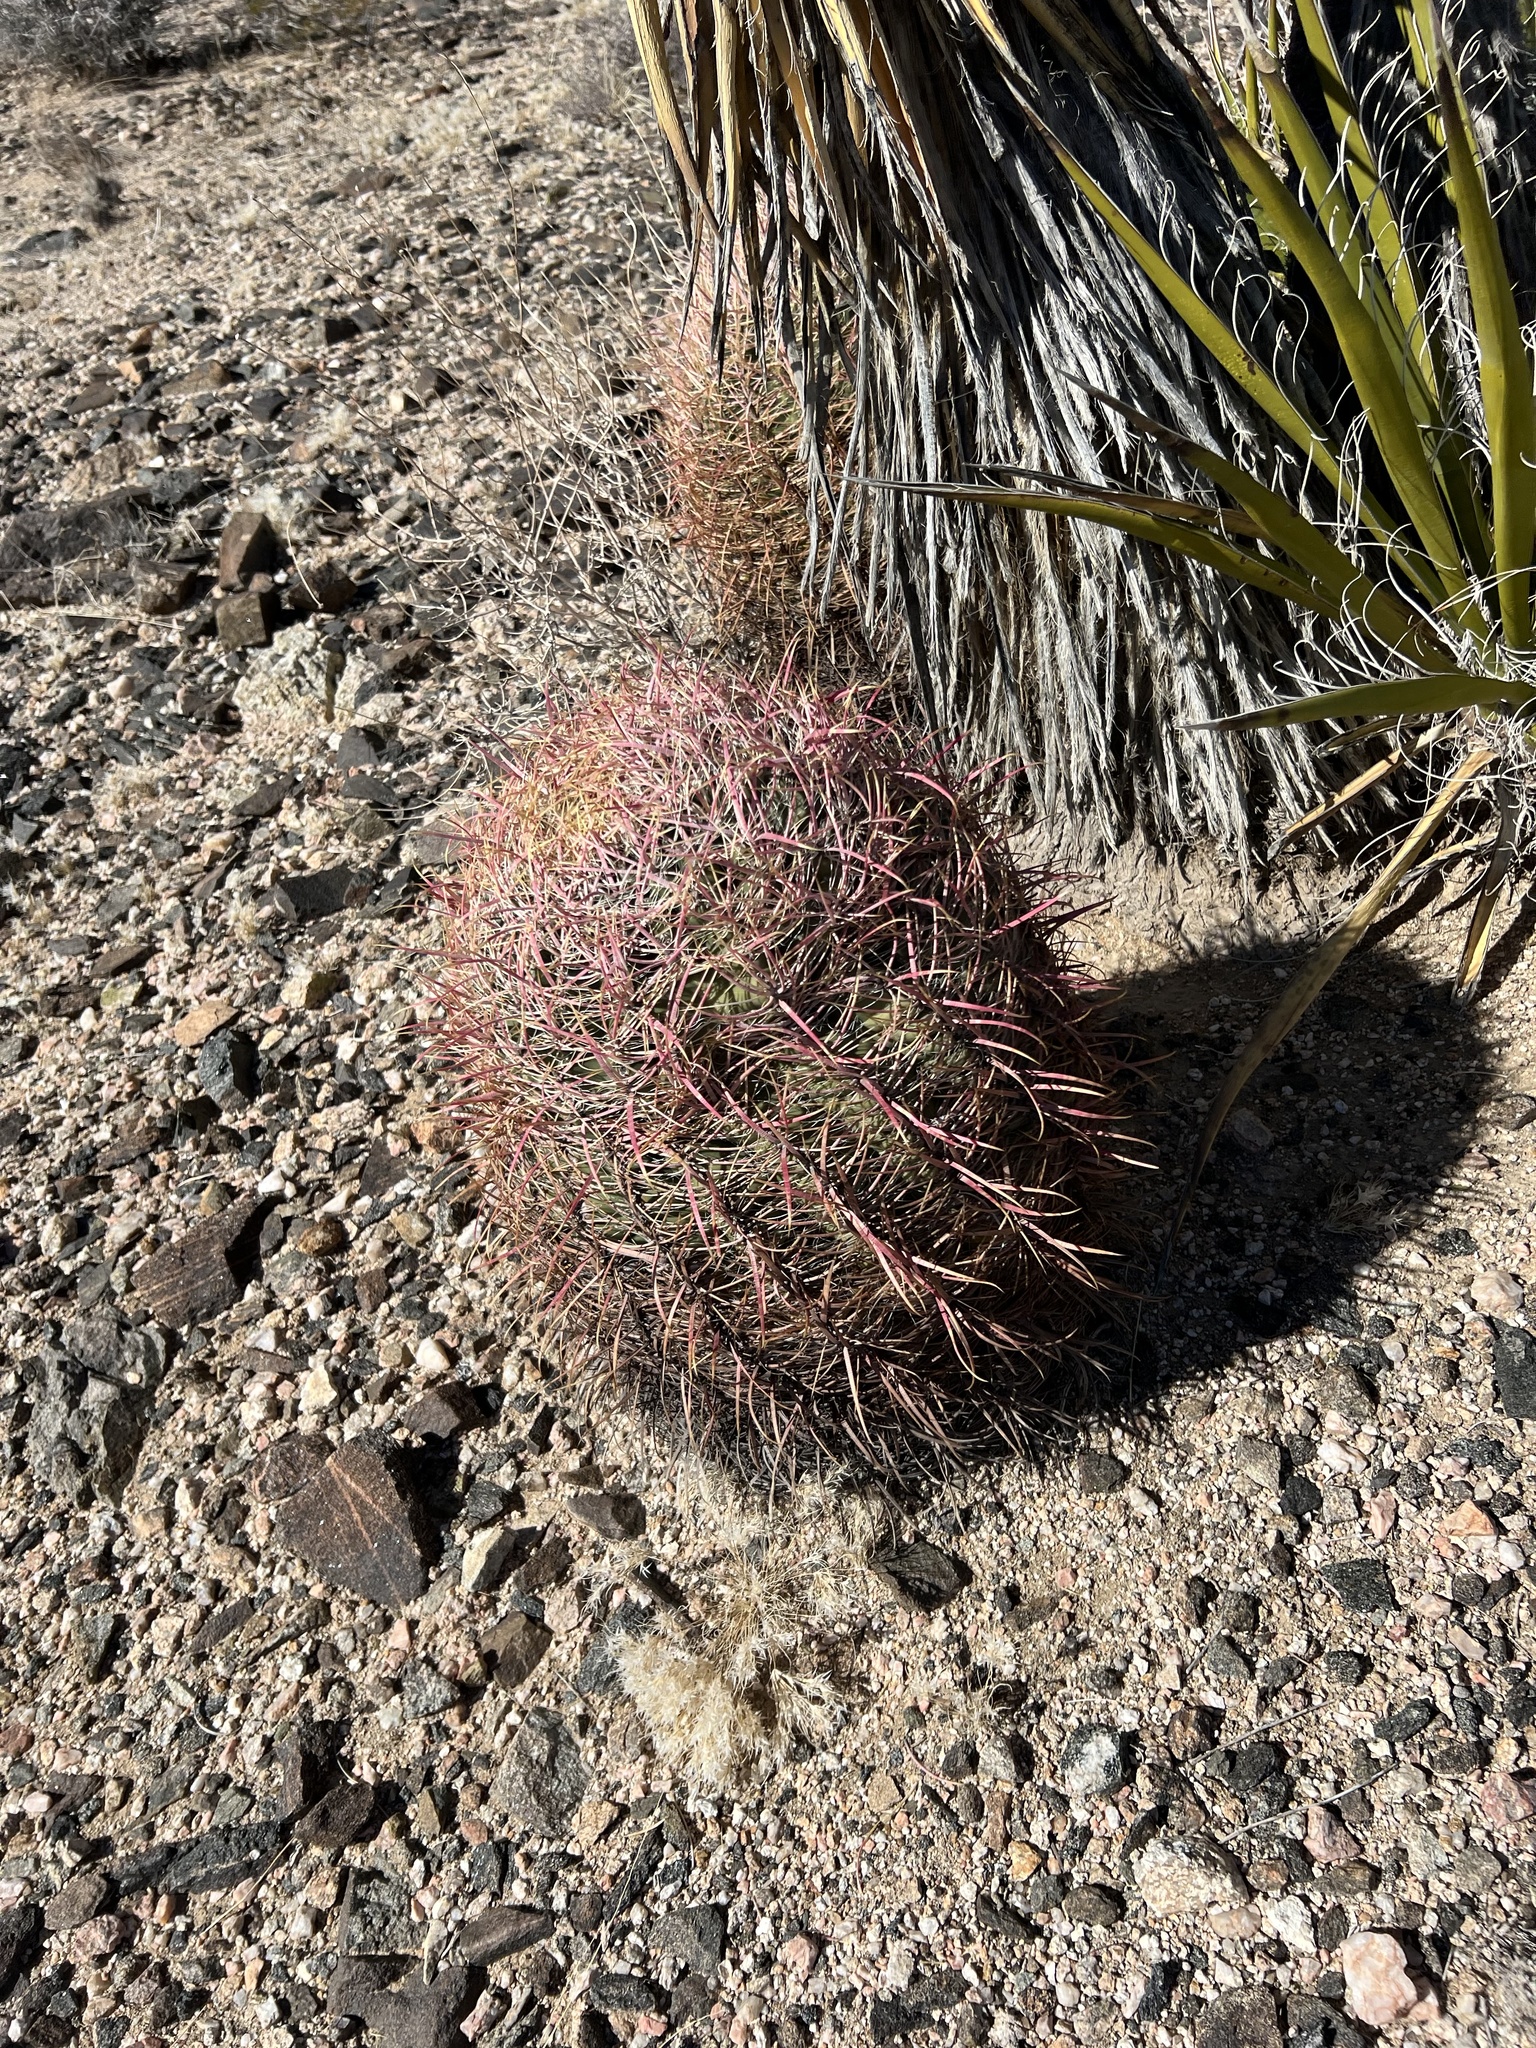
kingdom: Plantae
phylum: Tracheophyta
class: Magnoliopsida
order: Caryophyllales
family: Cactaceae
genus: Ferocactus
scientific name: Ferocactus cylindraceus
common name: California barrel cactus
